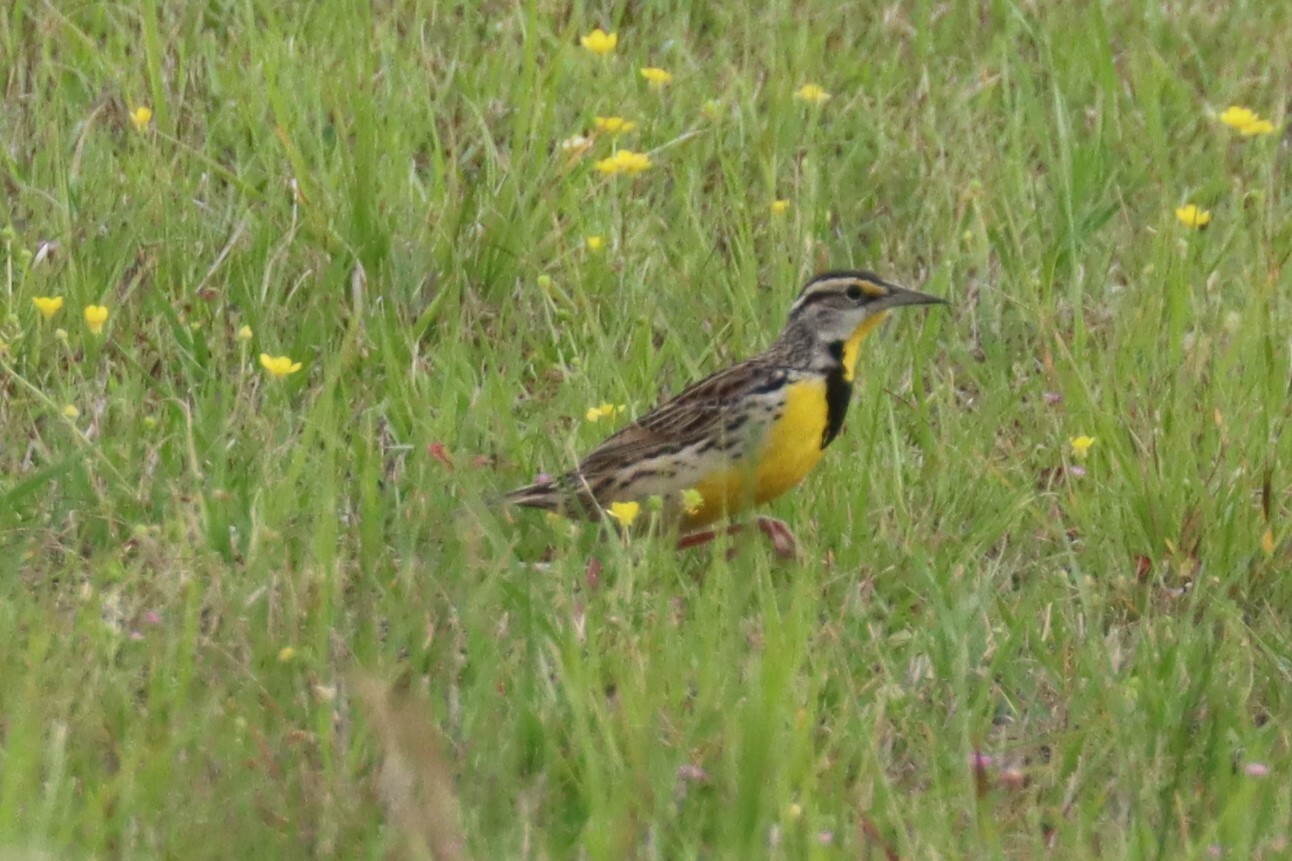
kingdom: Animalia
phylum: Chordata
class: Aves
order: Passeriformes
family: Icteridae
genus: Sturnella
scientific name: Sturnella magna
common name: Eastern meadowlark
